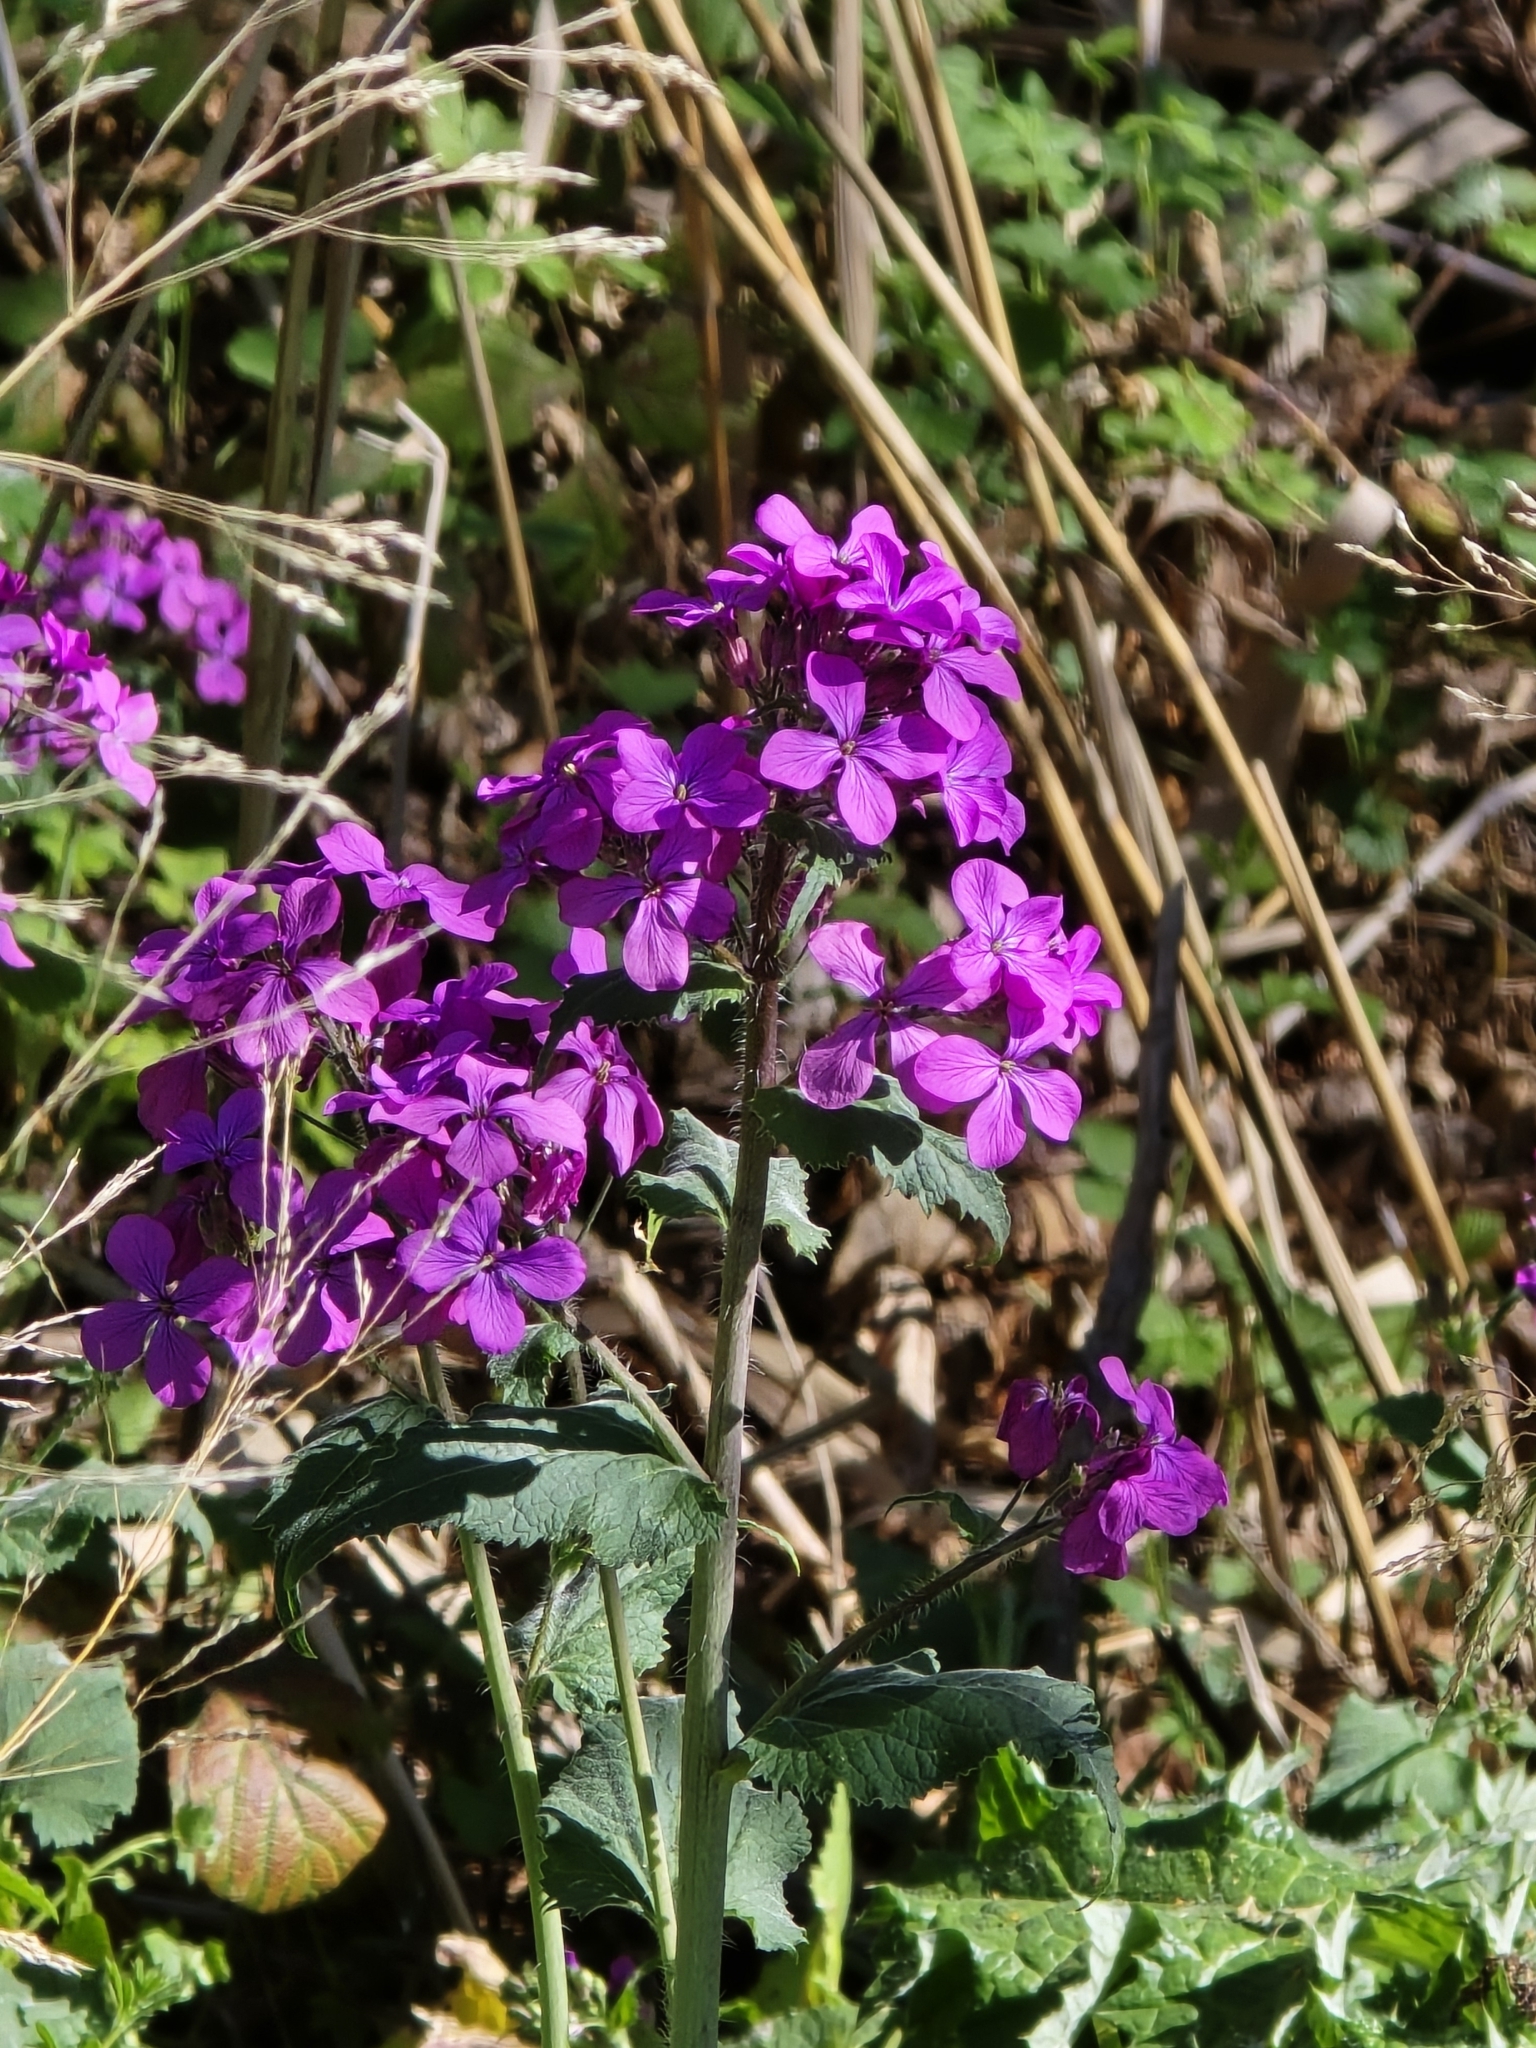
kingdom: Plantae
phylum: Tracheophyta
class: Magnoliopsida
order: Brassicales
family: Brassicaceae
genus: Lunaria
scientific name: Lunaria annua
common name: Honesty
